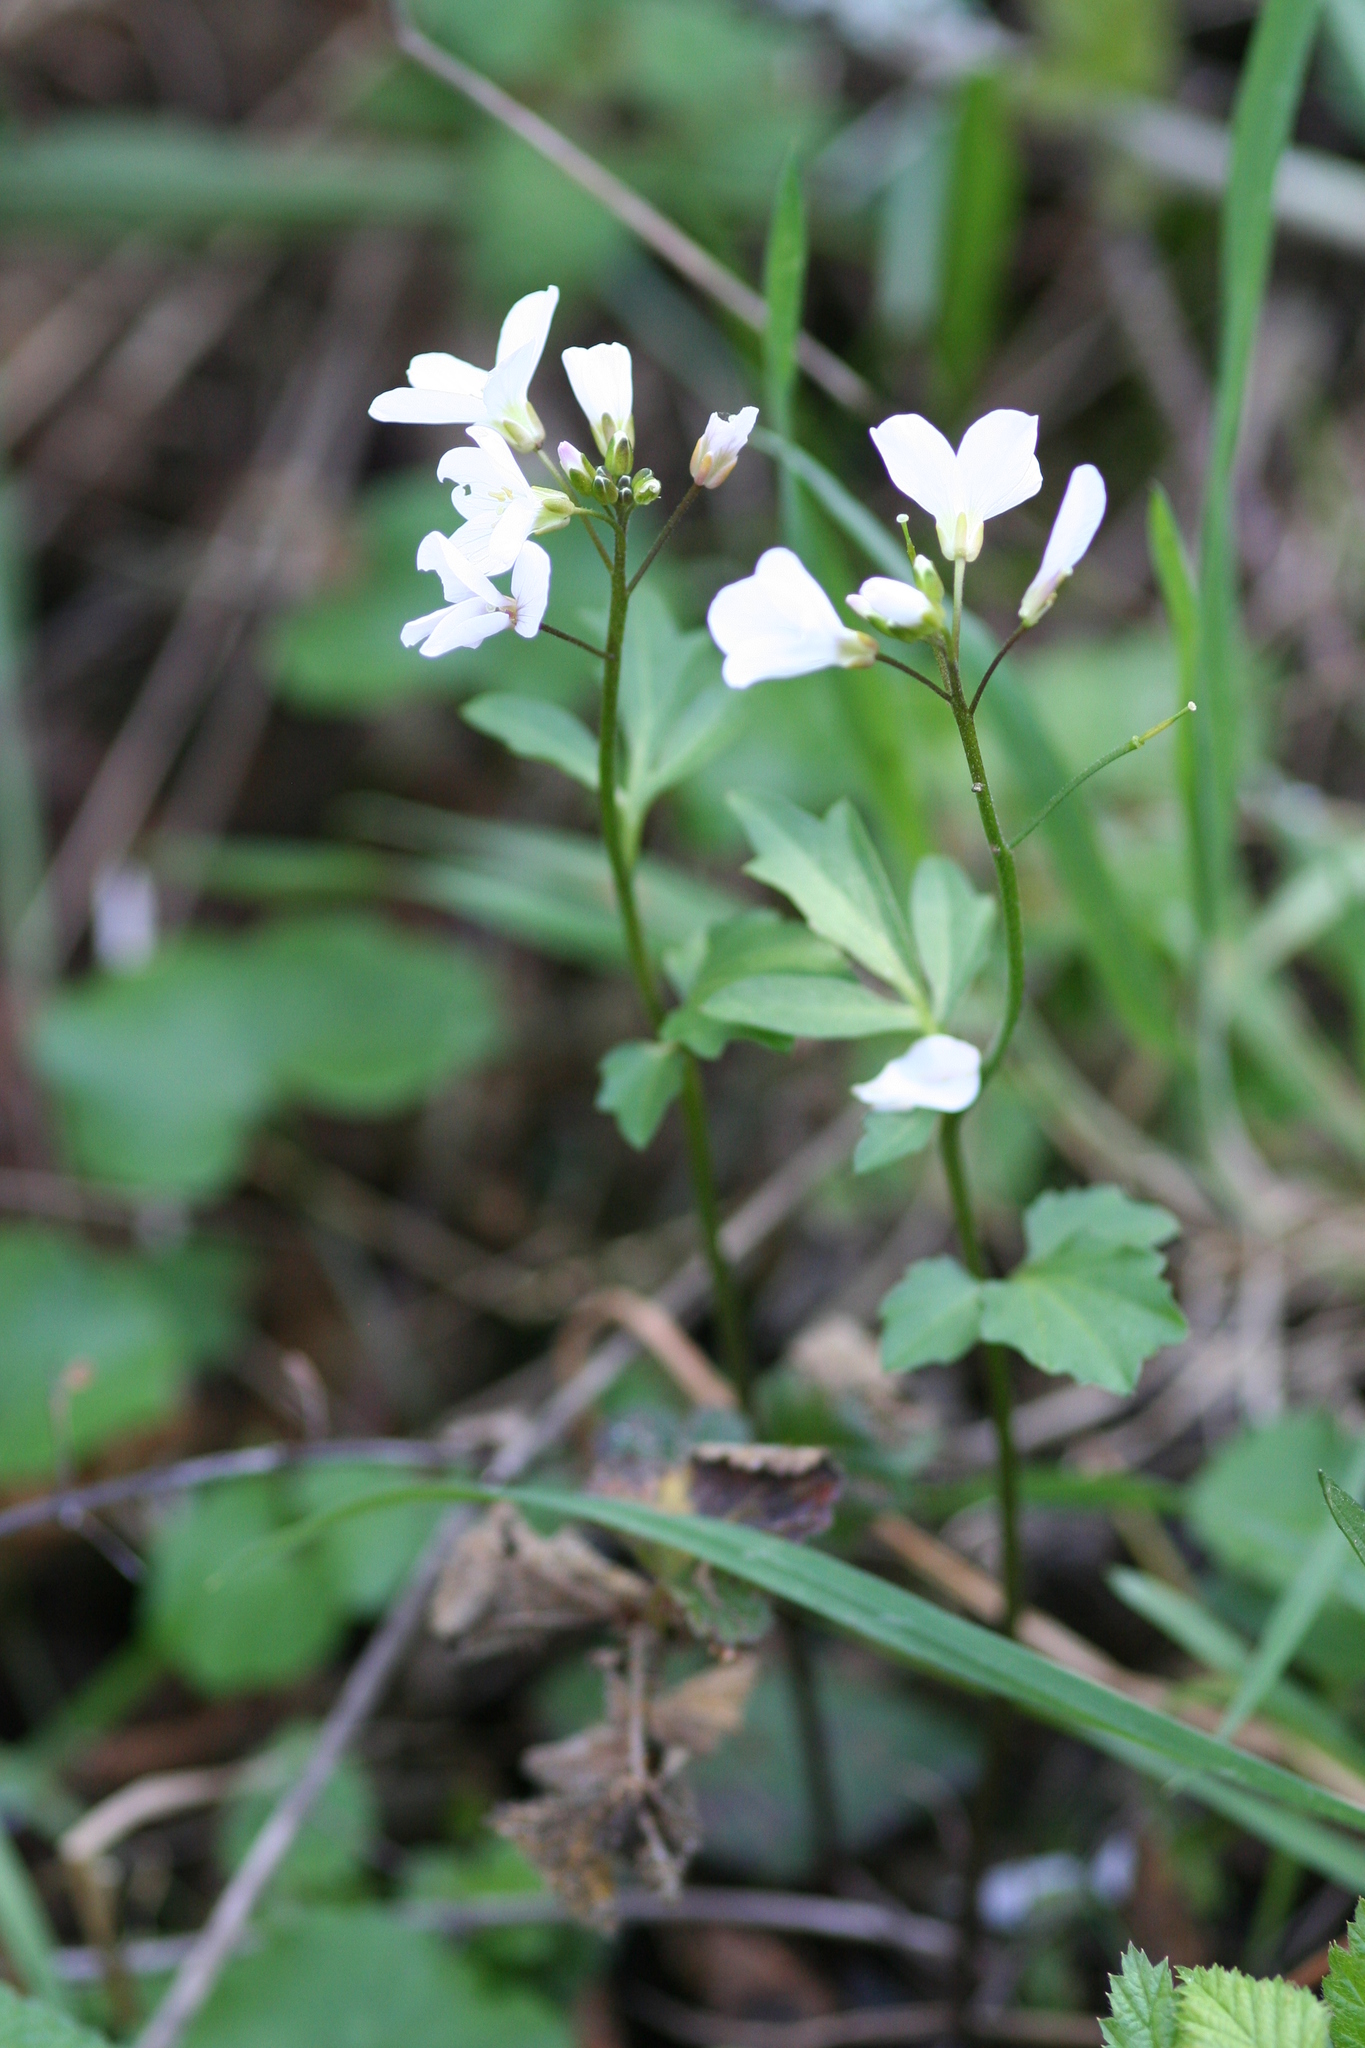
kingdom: Plantae
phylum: Tracheophyta
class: Magnoliopsida
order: Brassicales
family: Brassicaceae
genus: Cardamine
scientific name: Cardamine californica
